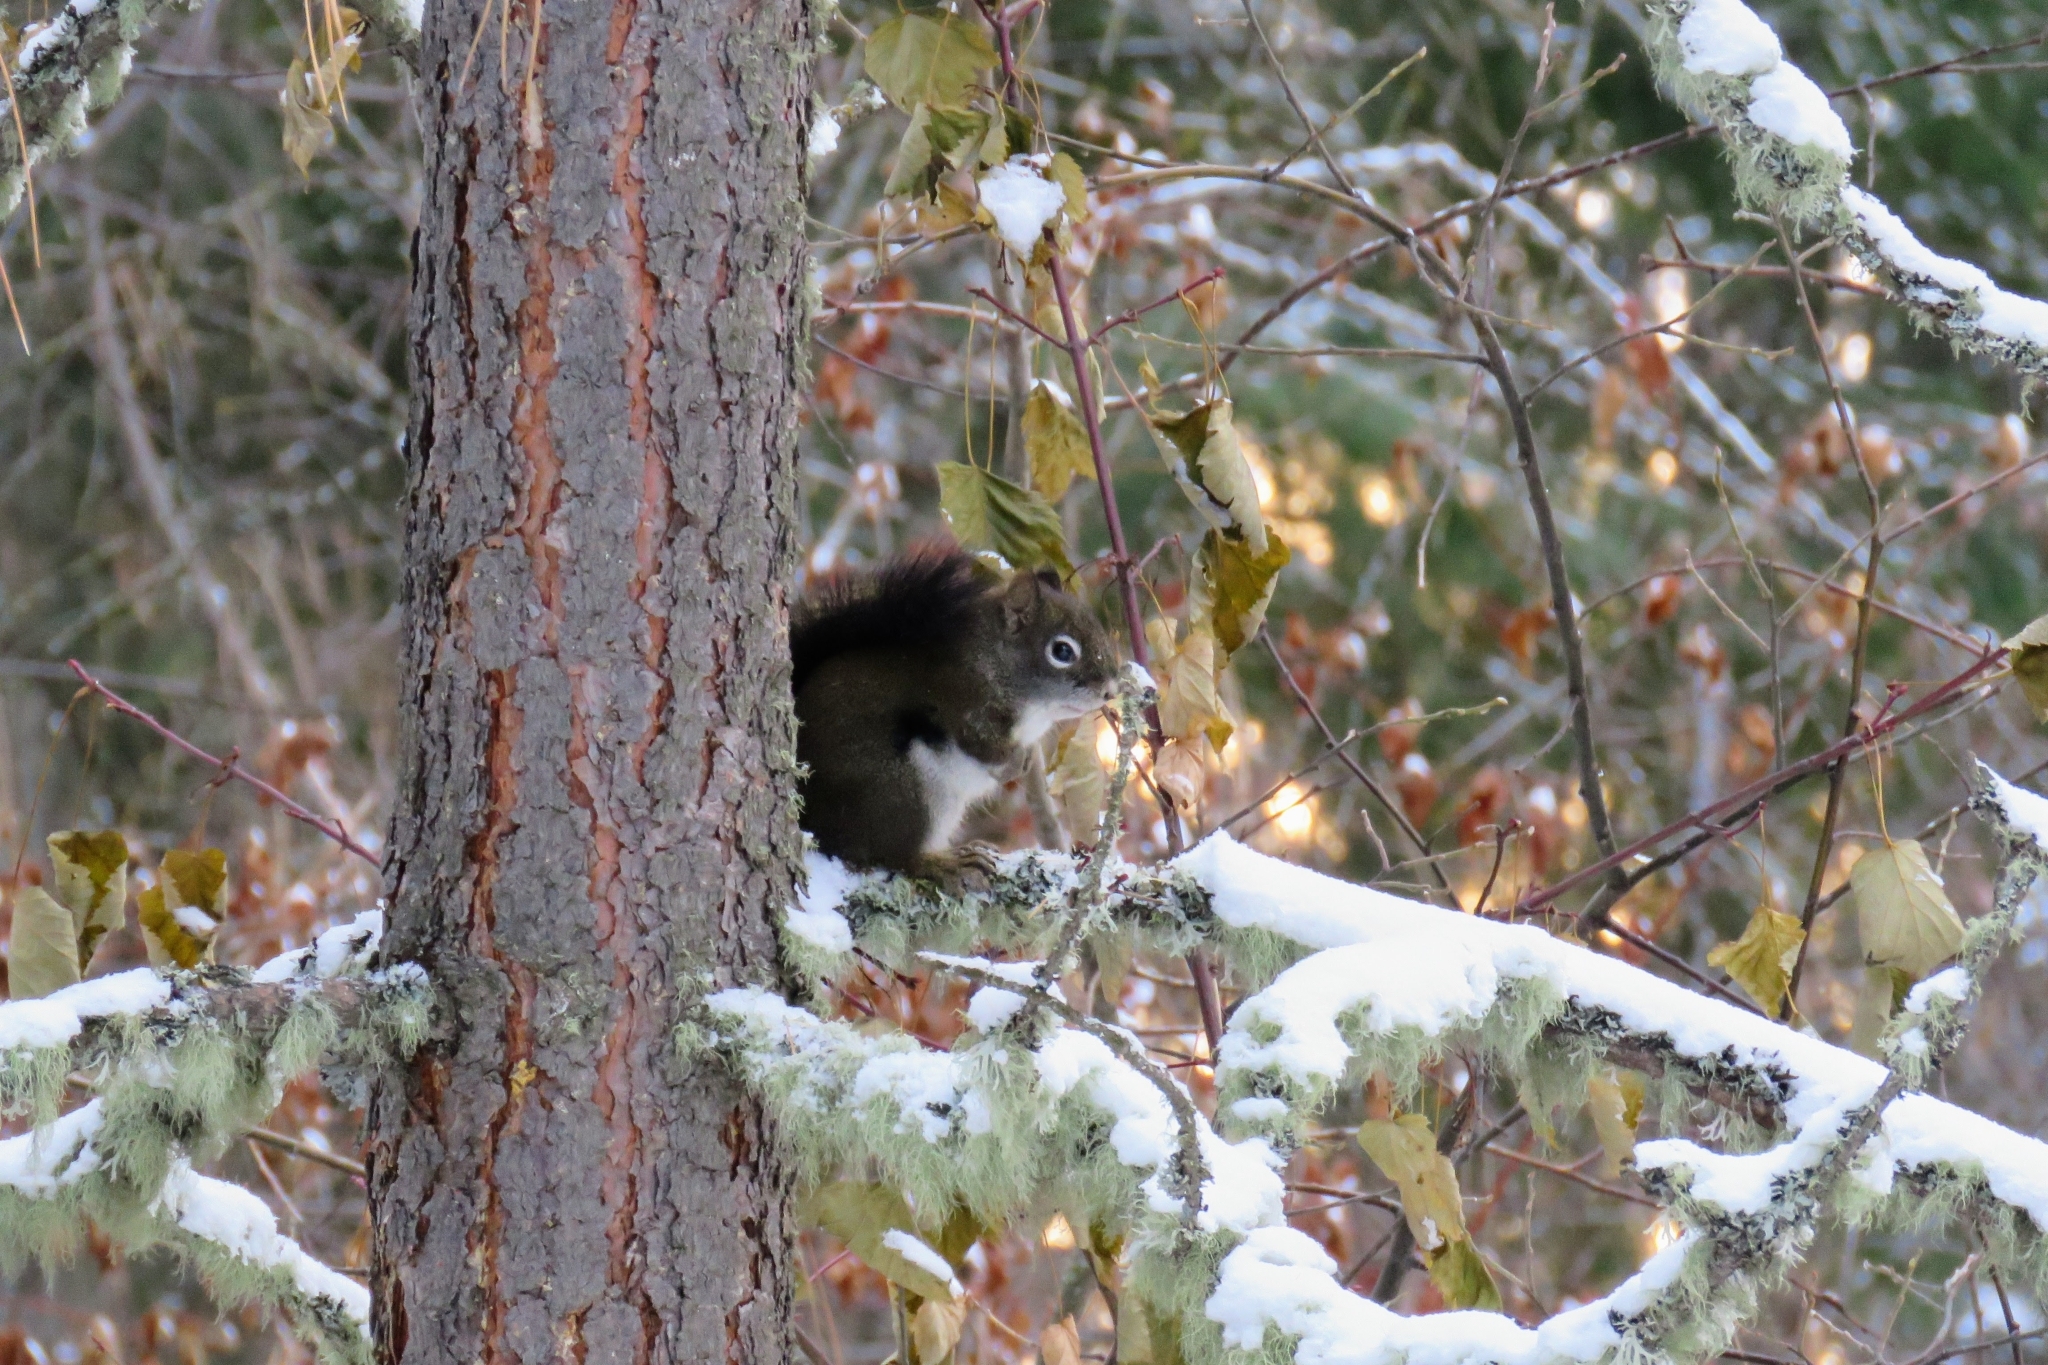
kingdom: Animalia
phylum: Chordata
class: Mammalia
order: Rodentia
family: Sciuridae
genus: Tamiasciurus
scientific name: Tamiasciurus hudsonicus
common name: Red squirrel
